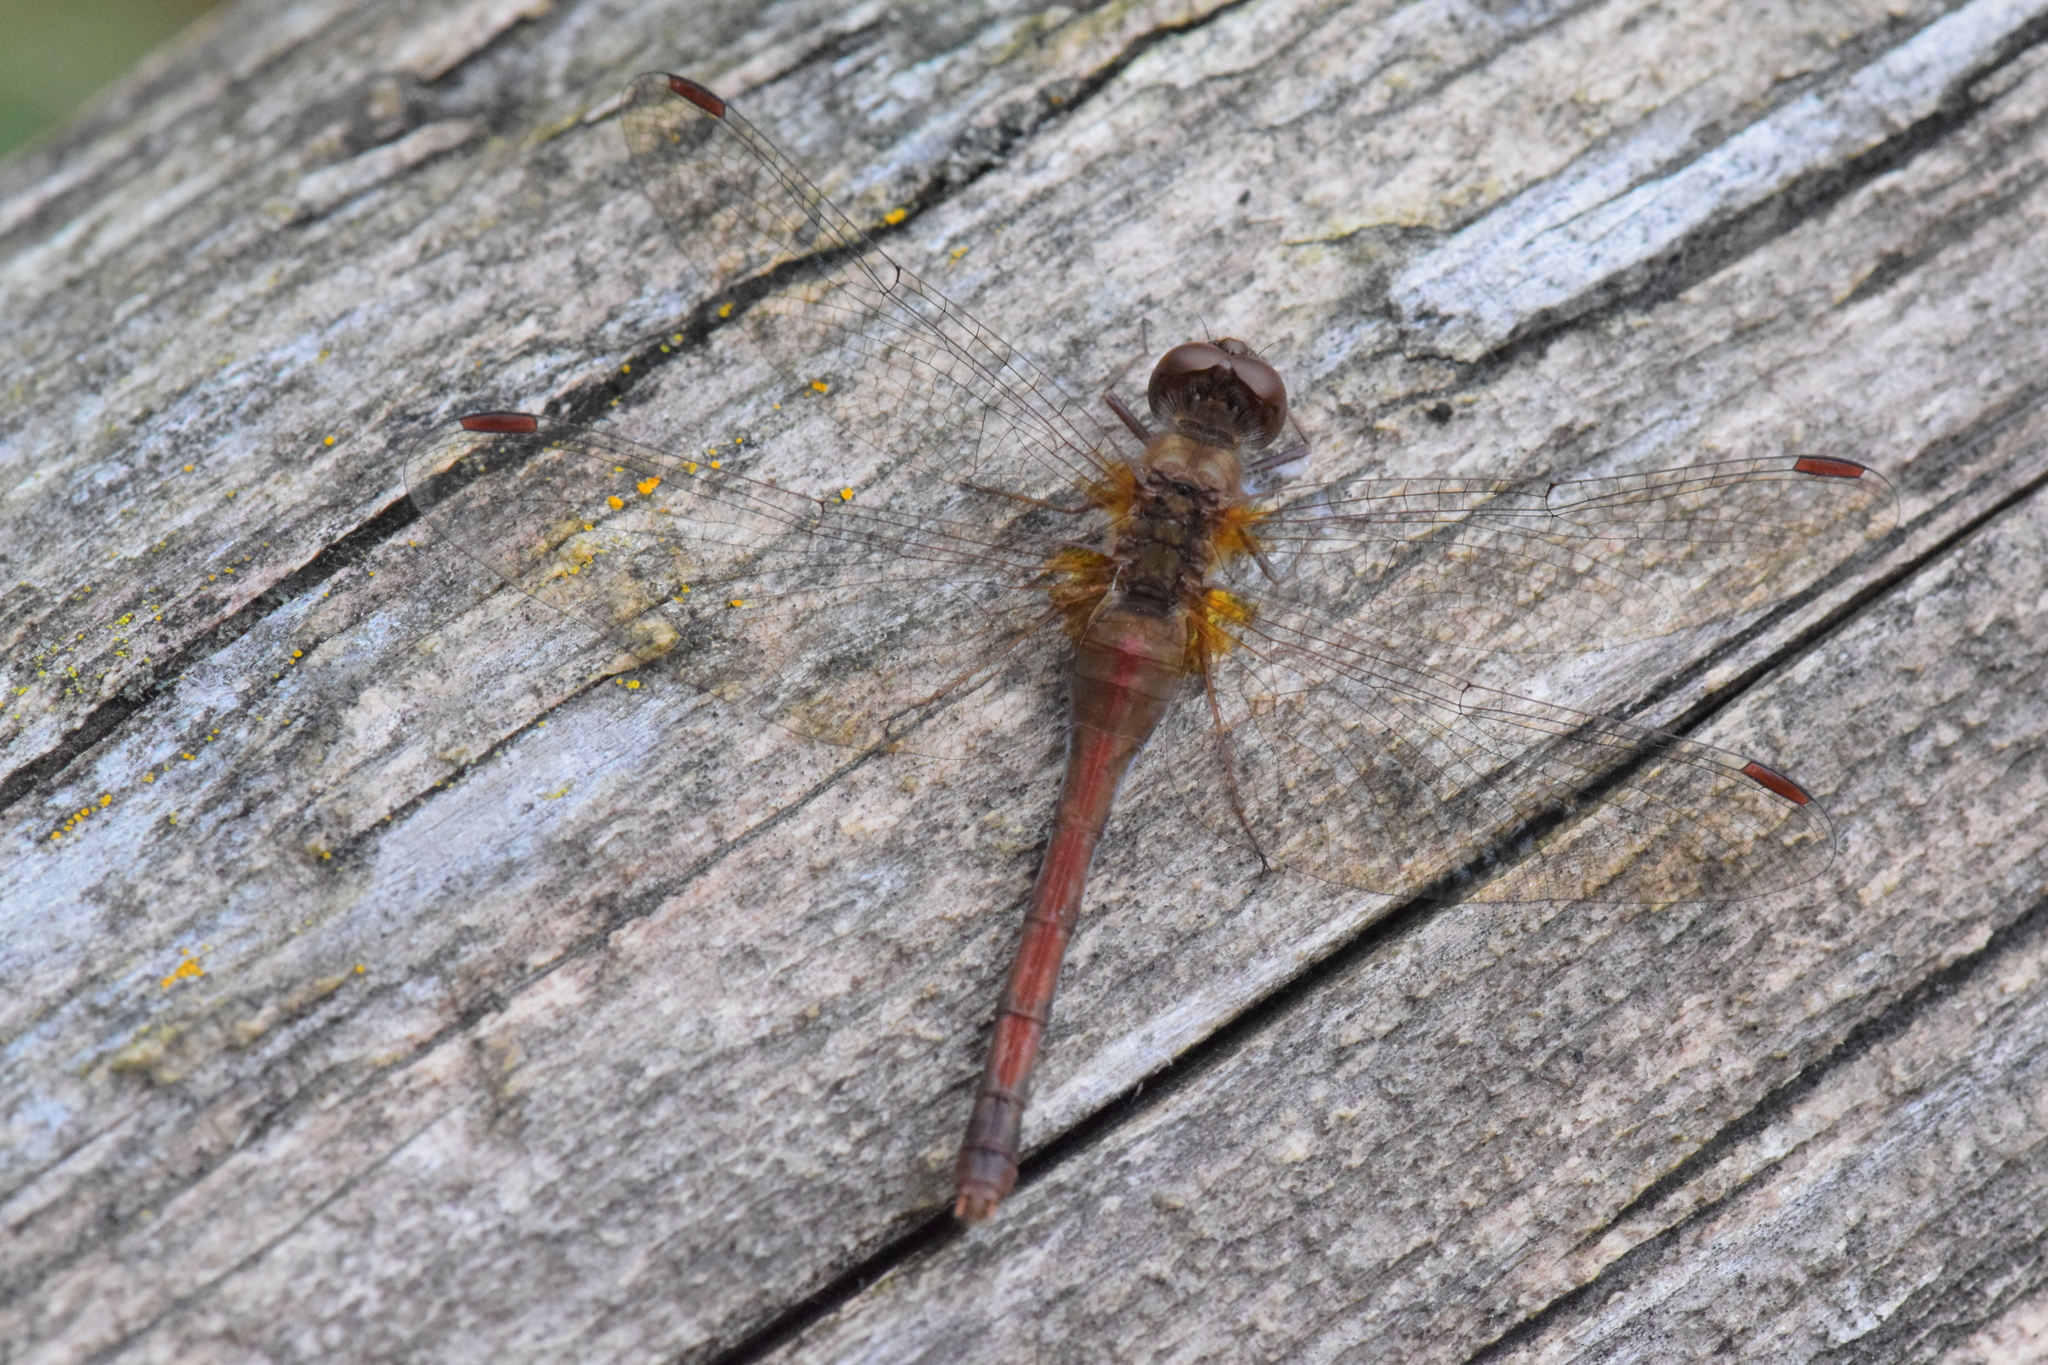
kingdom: Animalia
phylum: Arthropoda
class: Insecta
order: Odonata
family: Libellulidae
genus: Sympetrum
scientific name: Sympetrum vicinum
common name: Autumn meadowhawk
